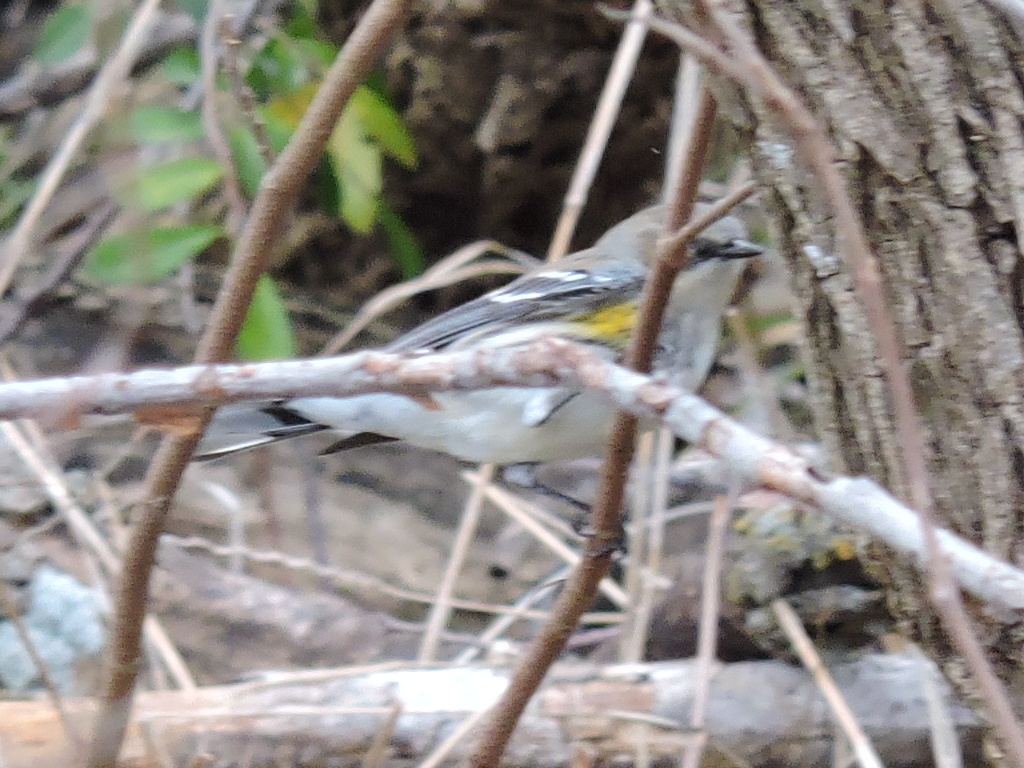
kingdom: Animalia
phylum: Chordata
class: Aves
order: Passeriformes
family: Parulidae
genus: Setophaga
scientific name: Setophaga coronata
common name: Myrtle warbler
